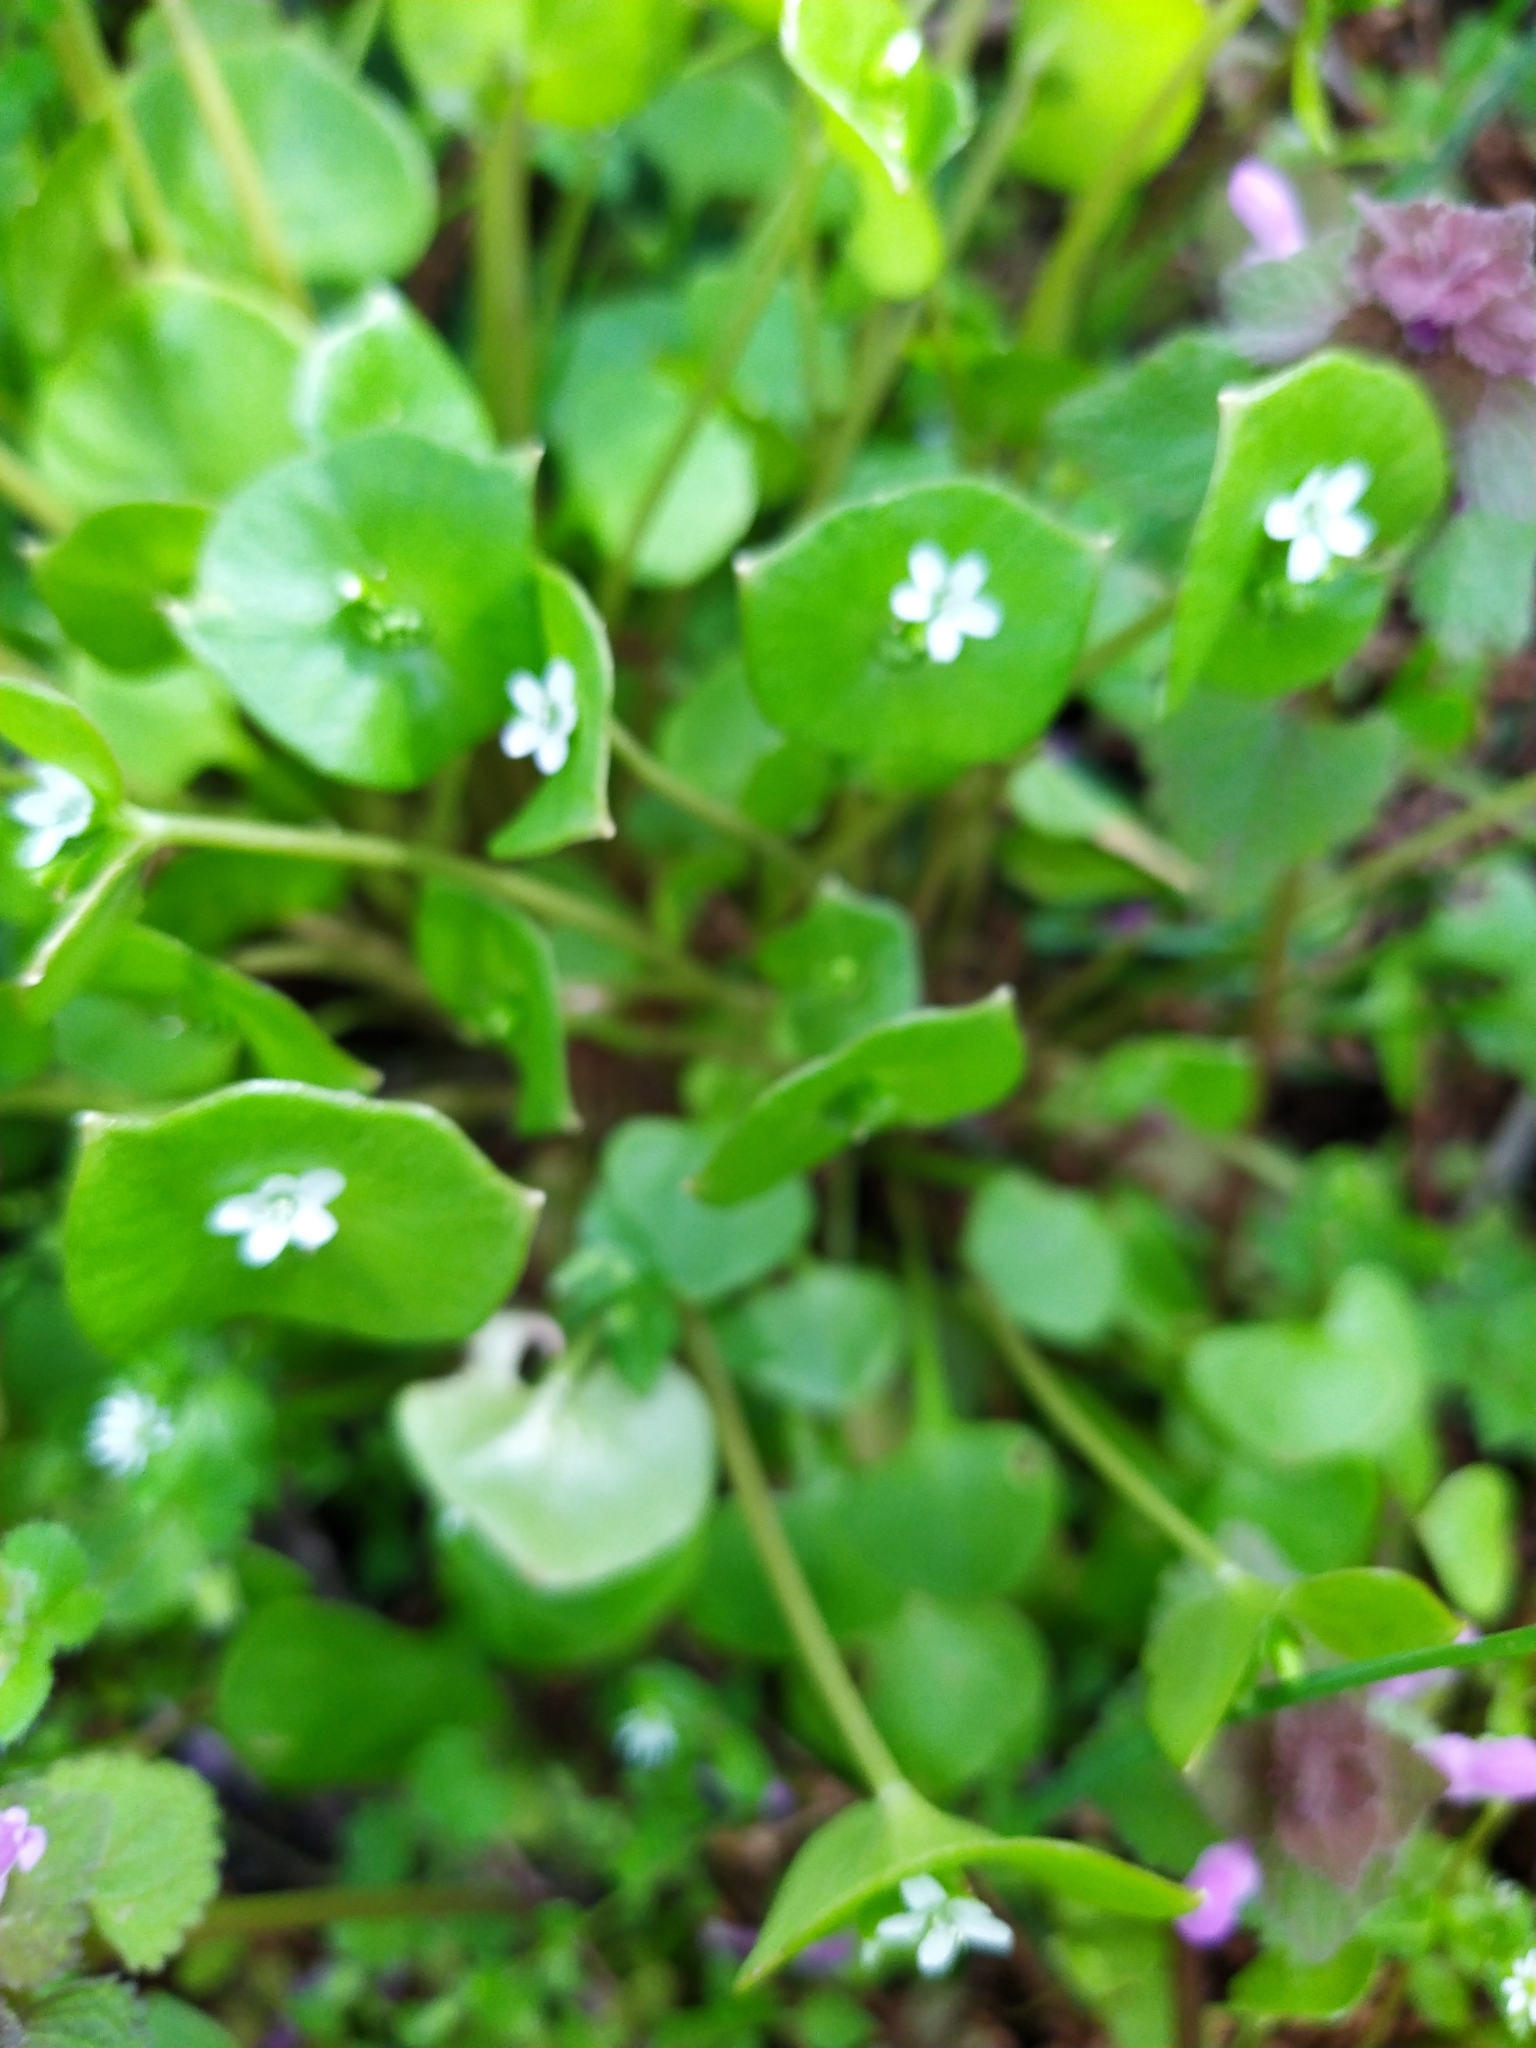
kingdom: Plantae
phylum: Tracheophyta
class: Magnoliopsida
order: Caryophyllales
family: Montiaceae
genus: Claytonia
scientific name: Claytonia perfoliata
